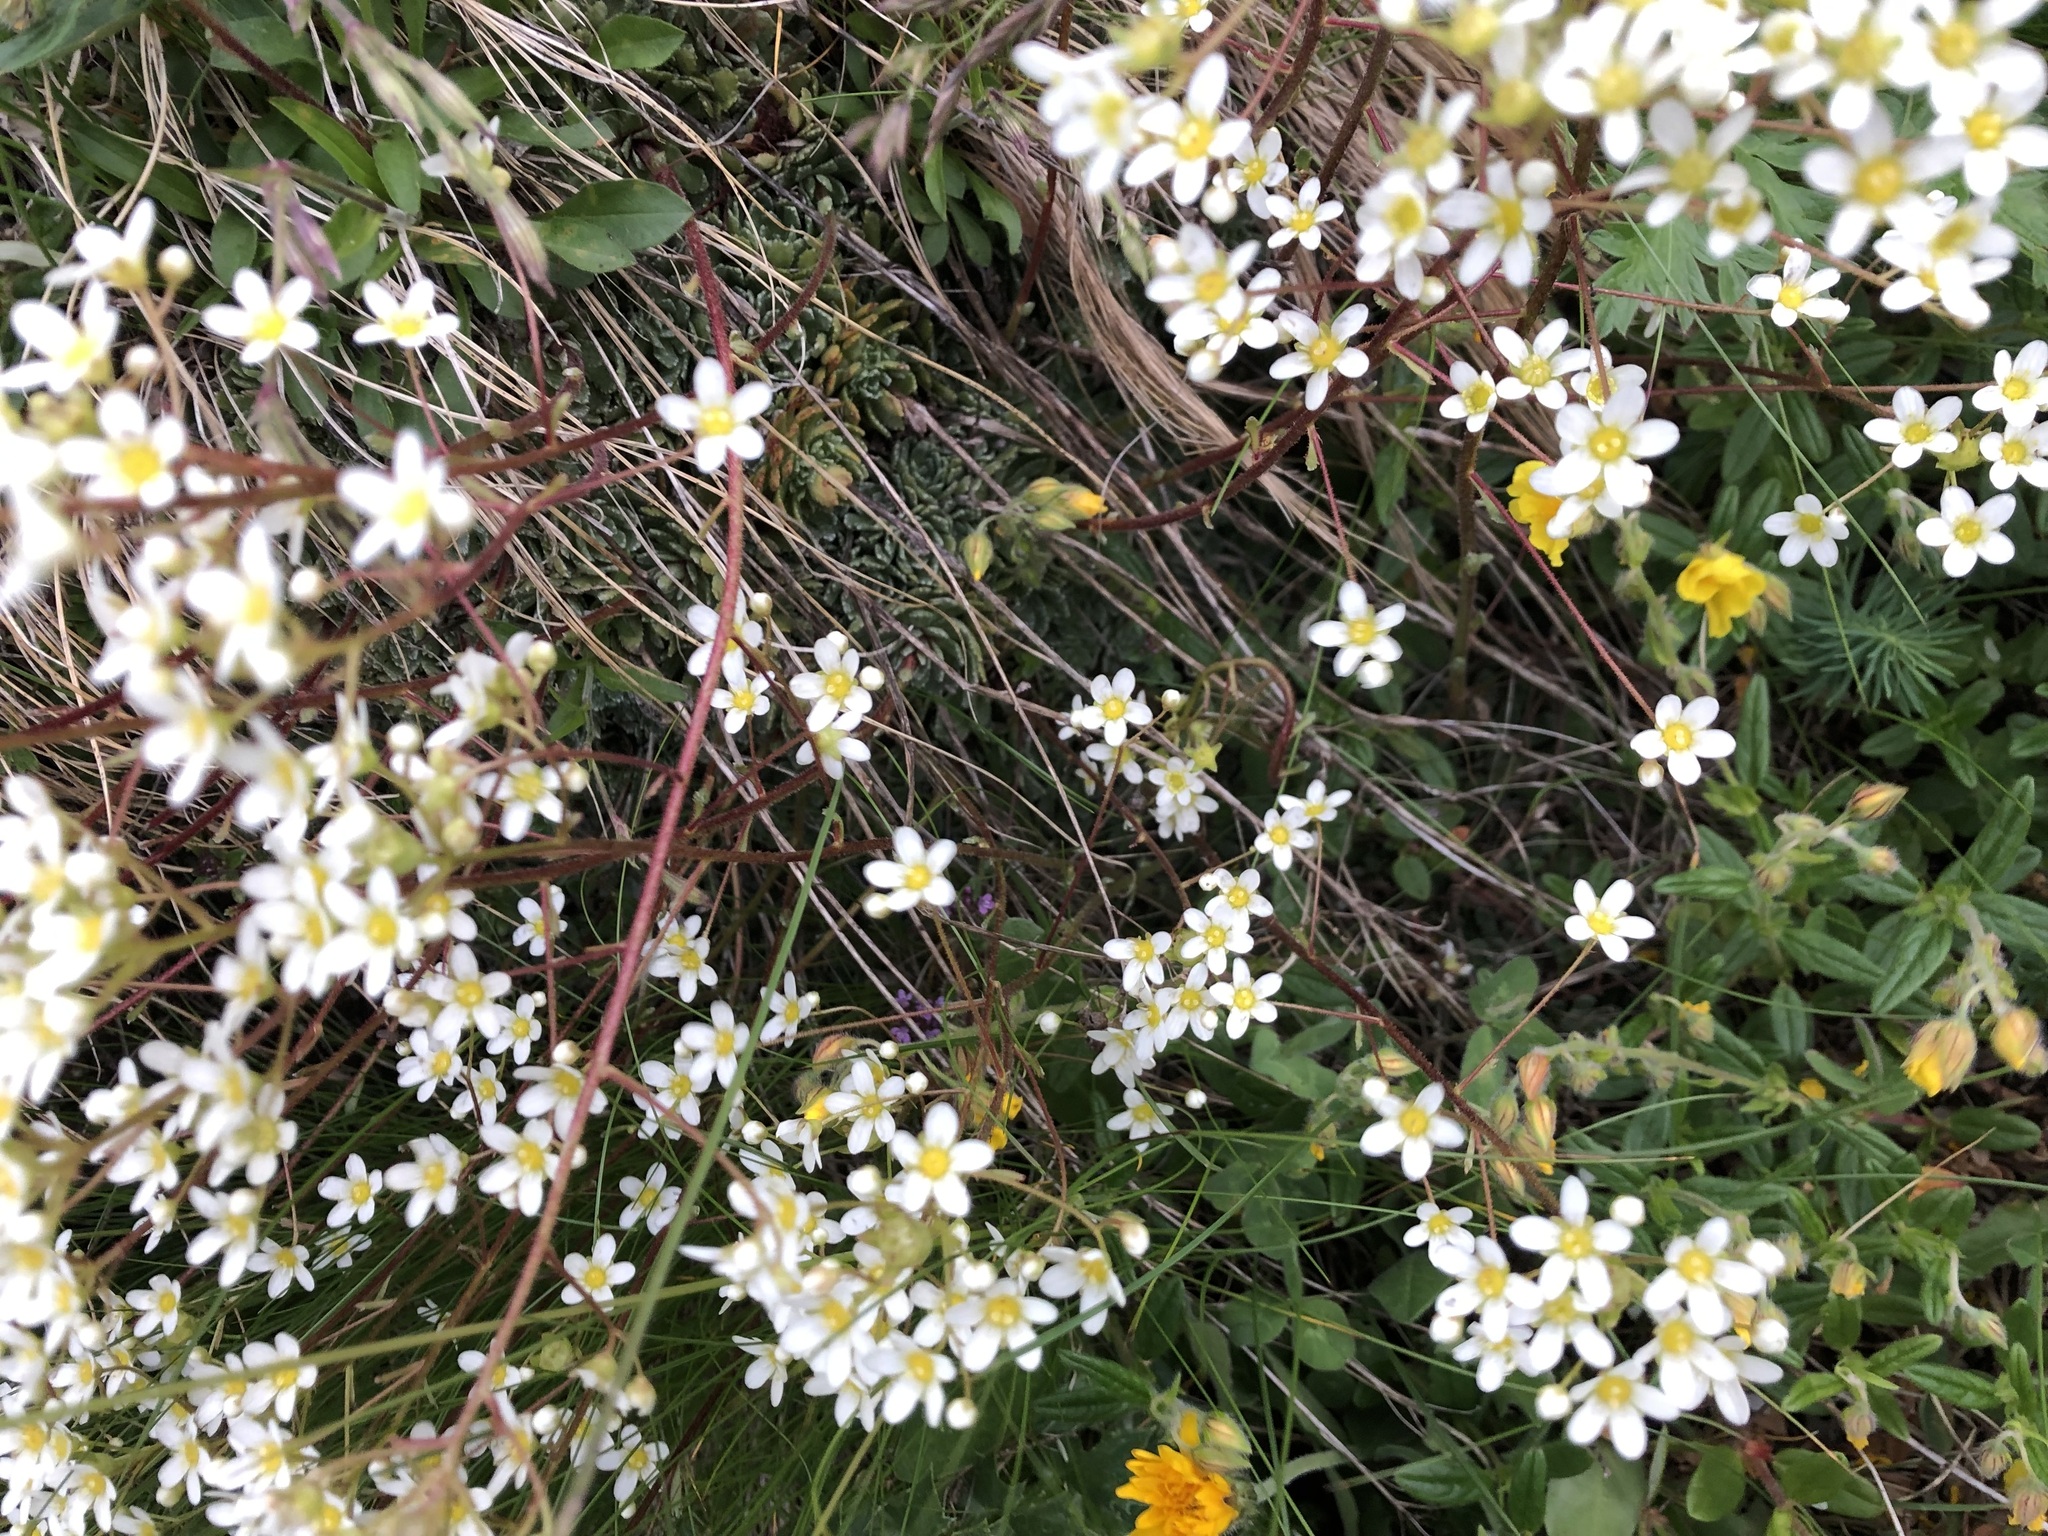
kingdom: Plantae
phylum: Tracheophyta
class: Magnoliopsida
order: Saxifragales
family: Saxifragaceae
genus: Saxifraga
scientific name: Saxifraga paniculata
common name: Livelong saxifrage
